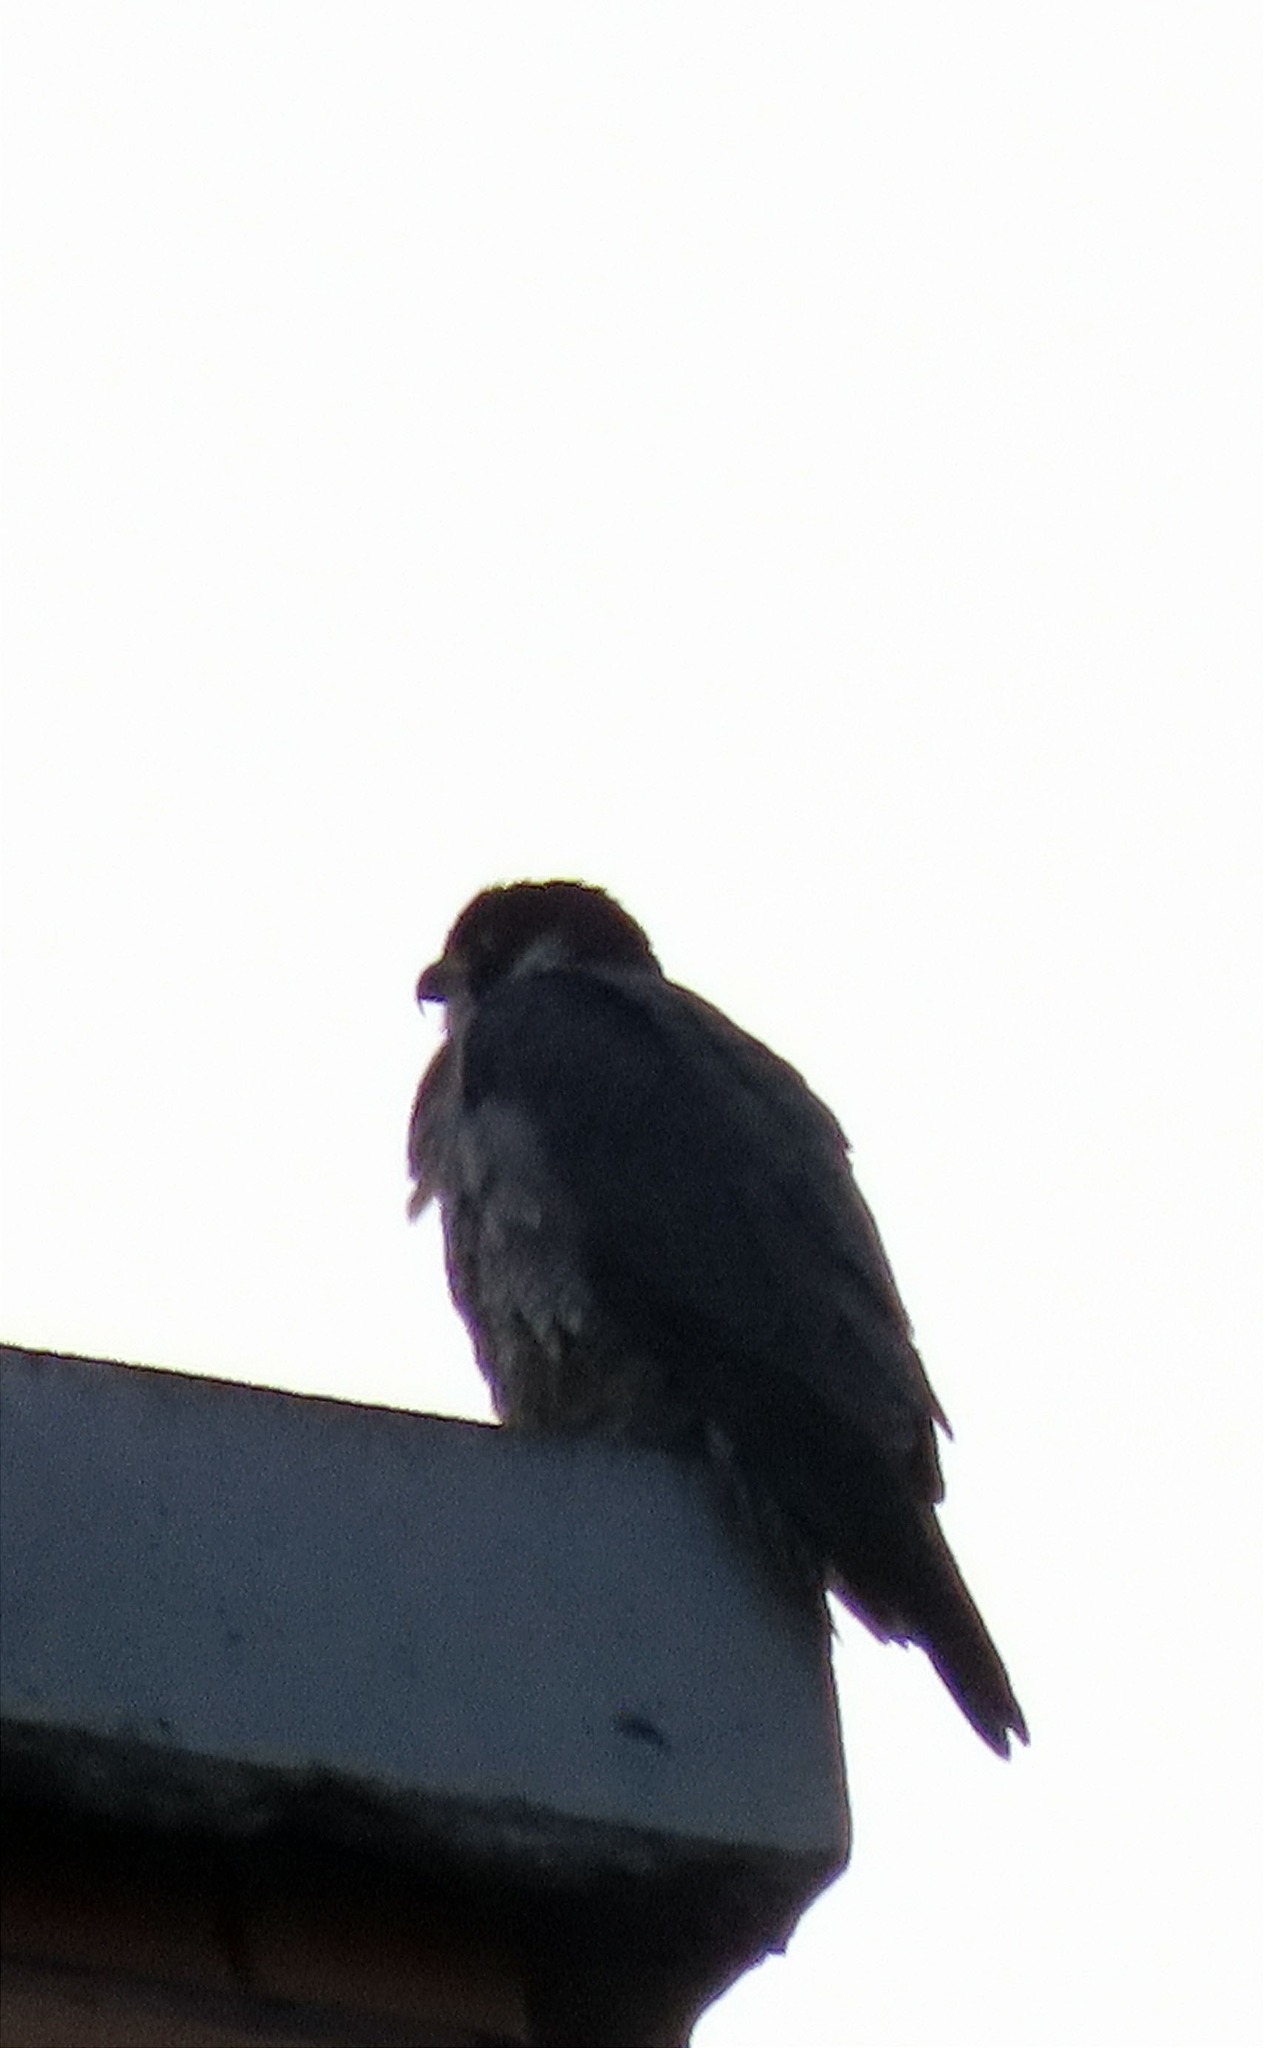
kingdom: Animalia
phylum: Chordata
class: Aves
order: Falconiformes
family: Falconidae
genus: Falco
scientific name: Falco peregrinus
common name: Peregrine falcon
